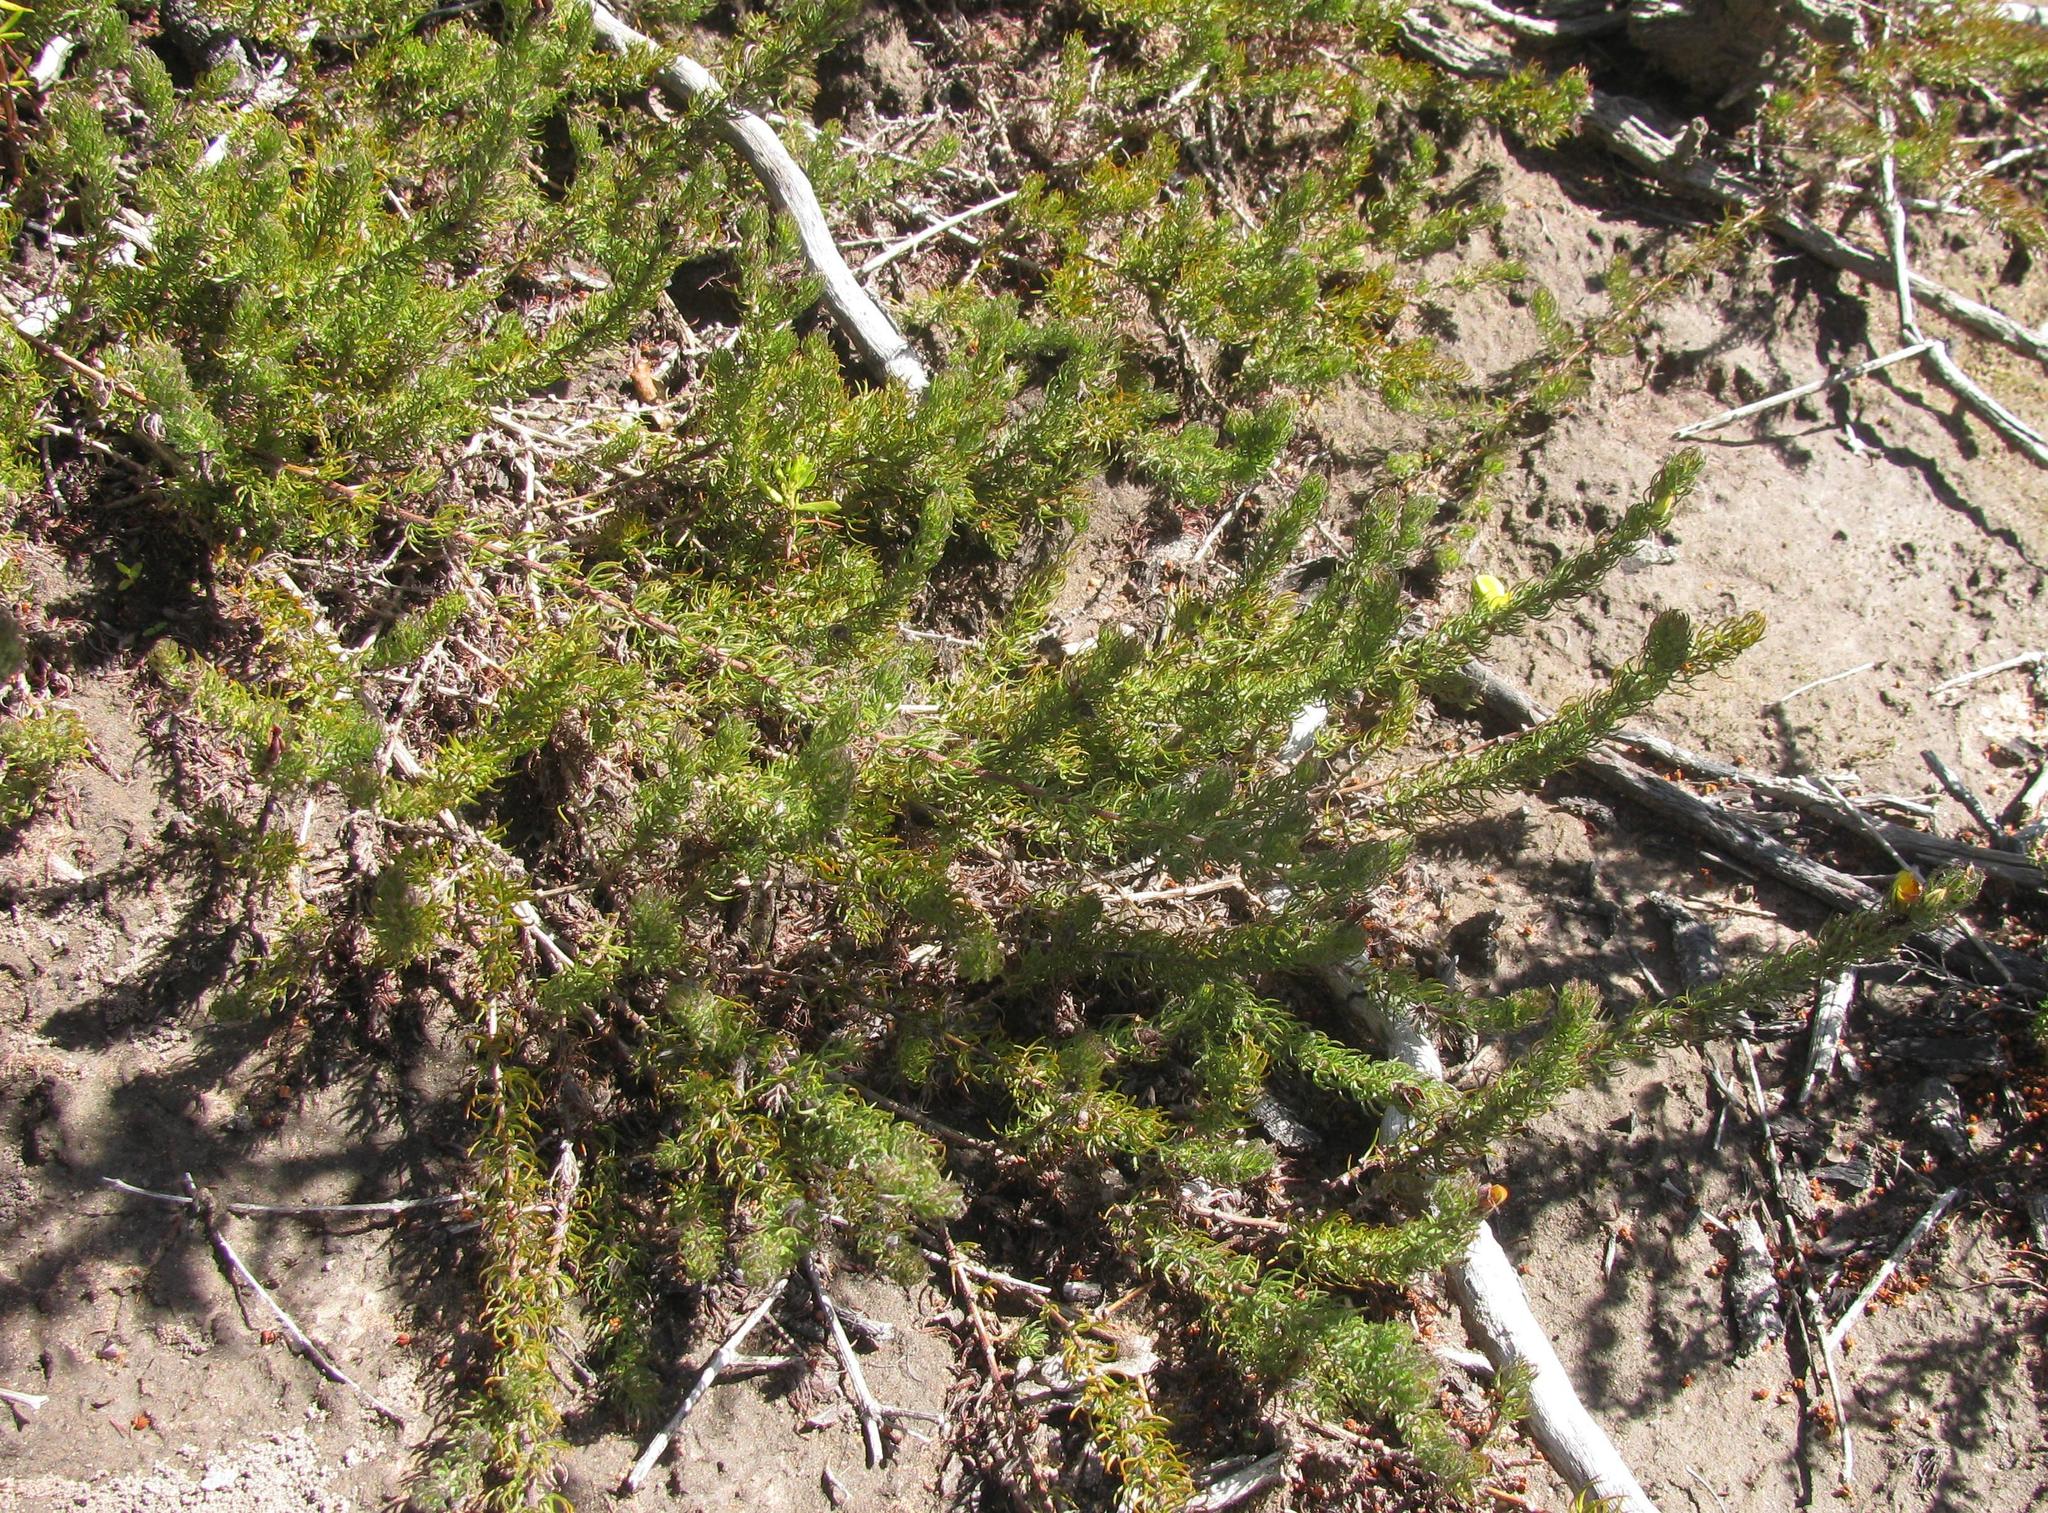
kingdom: Plantae
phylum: Tracheophyta
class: Magnoliopsida
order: Fabales
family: Fabaceae
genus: Aspalathus
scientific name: Aspalathus asparagoides
